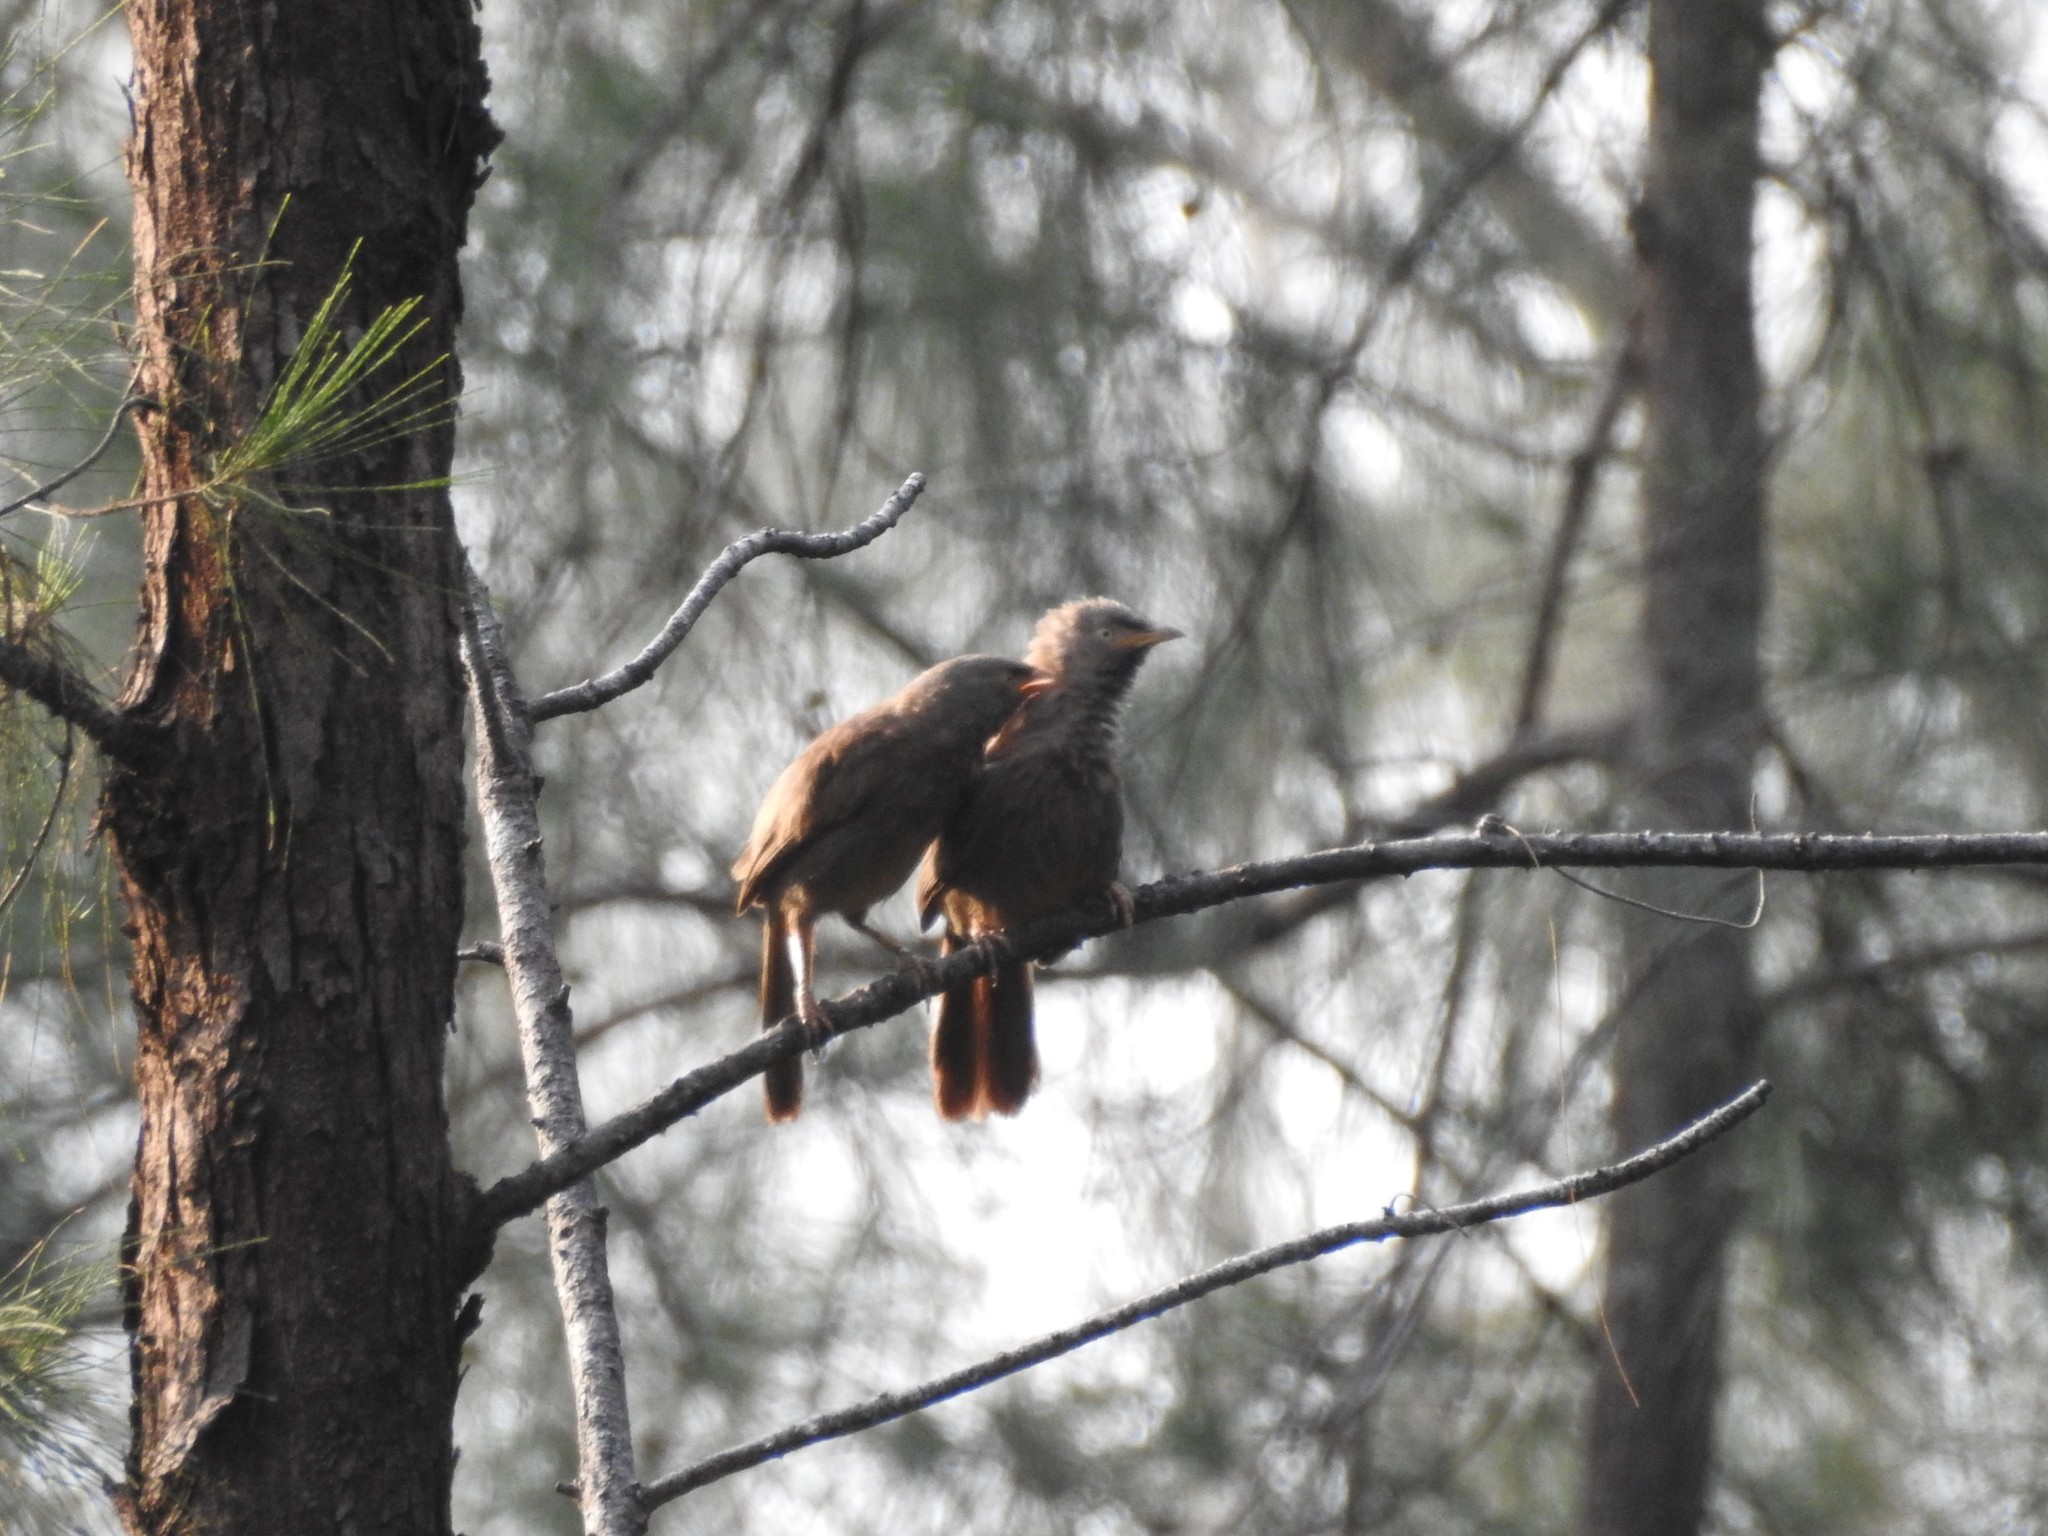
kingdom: Animalia
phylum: Chordata
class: Aves
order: Passeriformes
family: Leiothrichidae
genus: Turdoides
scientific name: Turdoides affinis
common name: Yellow-billed babbler
